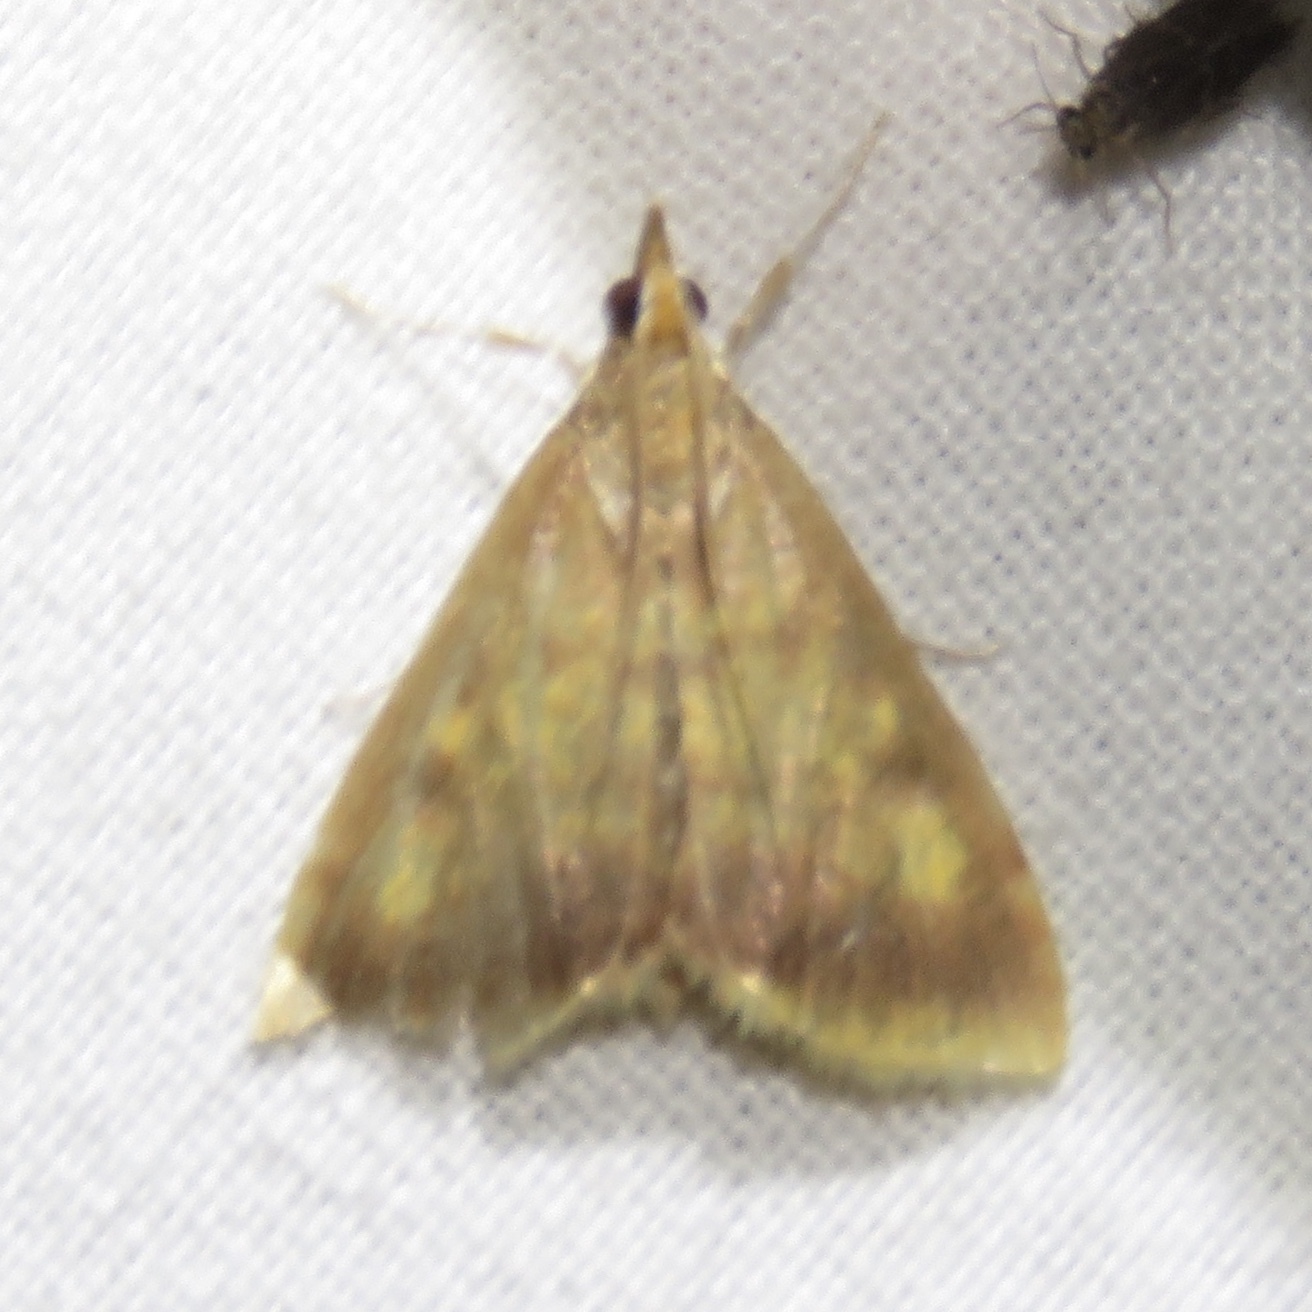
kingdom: Animalia
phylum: Arthropoda
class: Insecta
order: Lepidoptera
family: Crambidae
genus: Pyrausta
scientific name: Pyrausta acrionalis
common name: Mint-loving pyrausta moth
